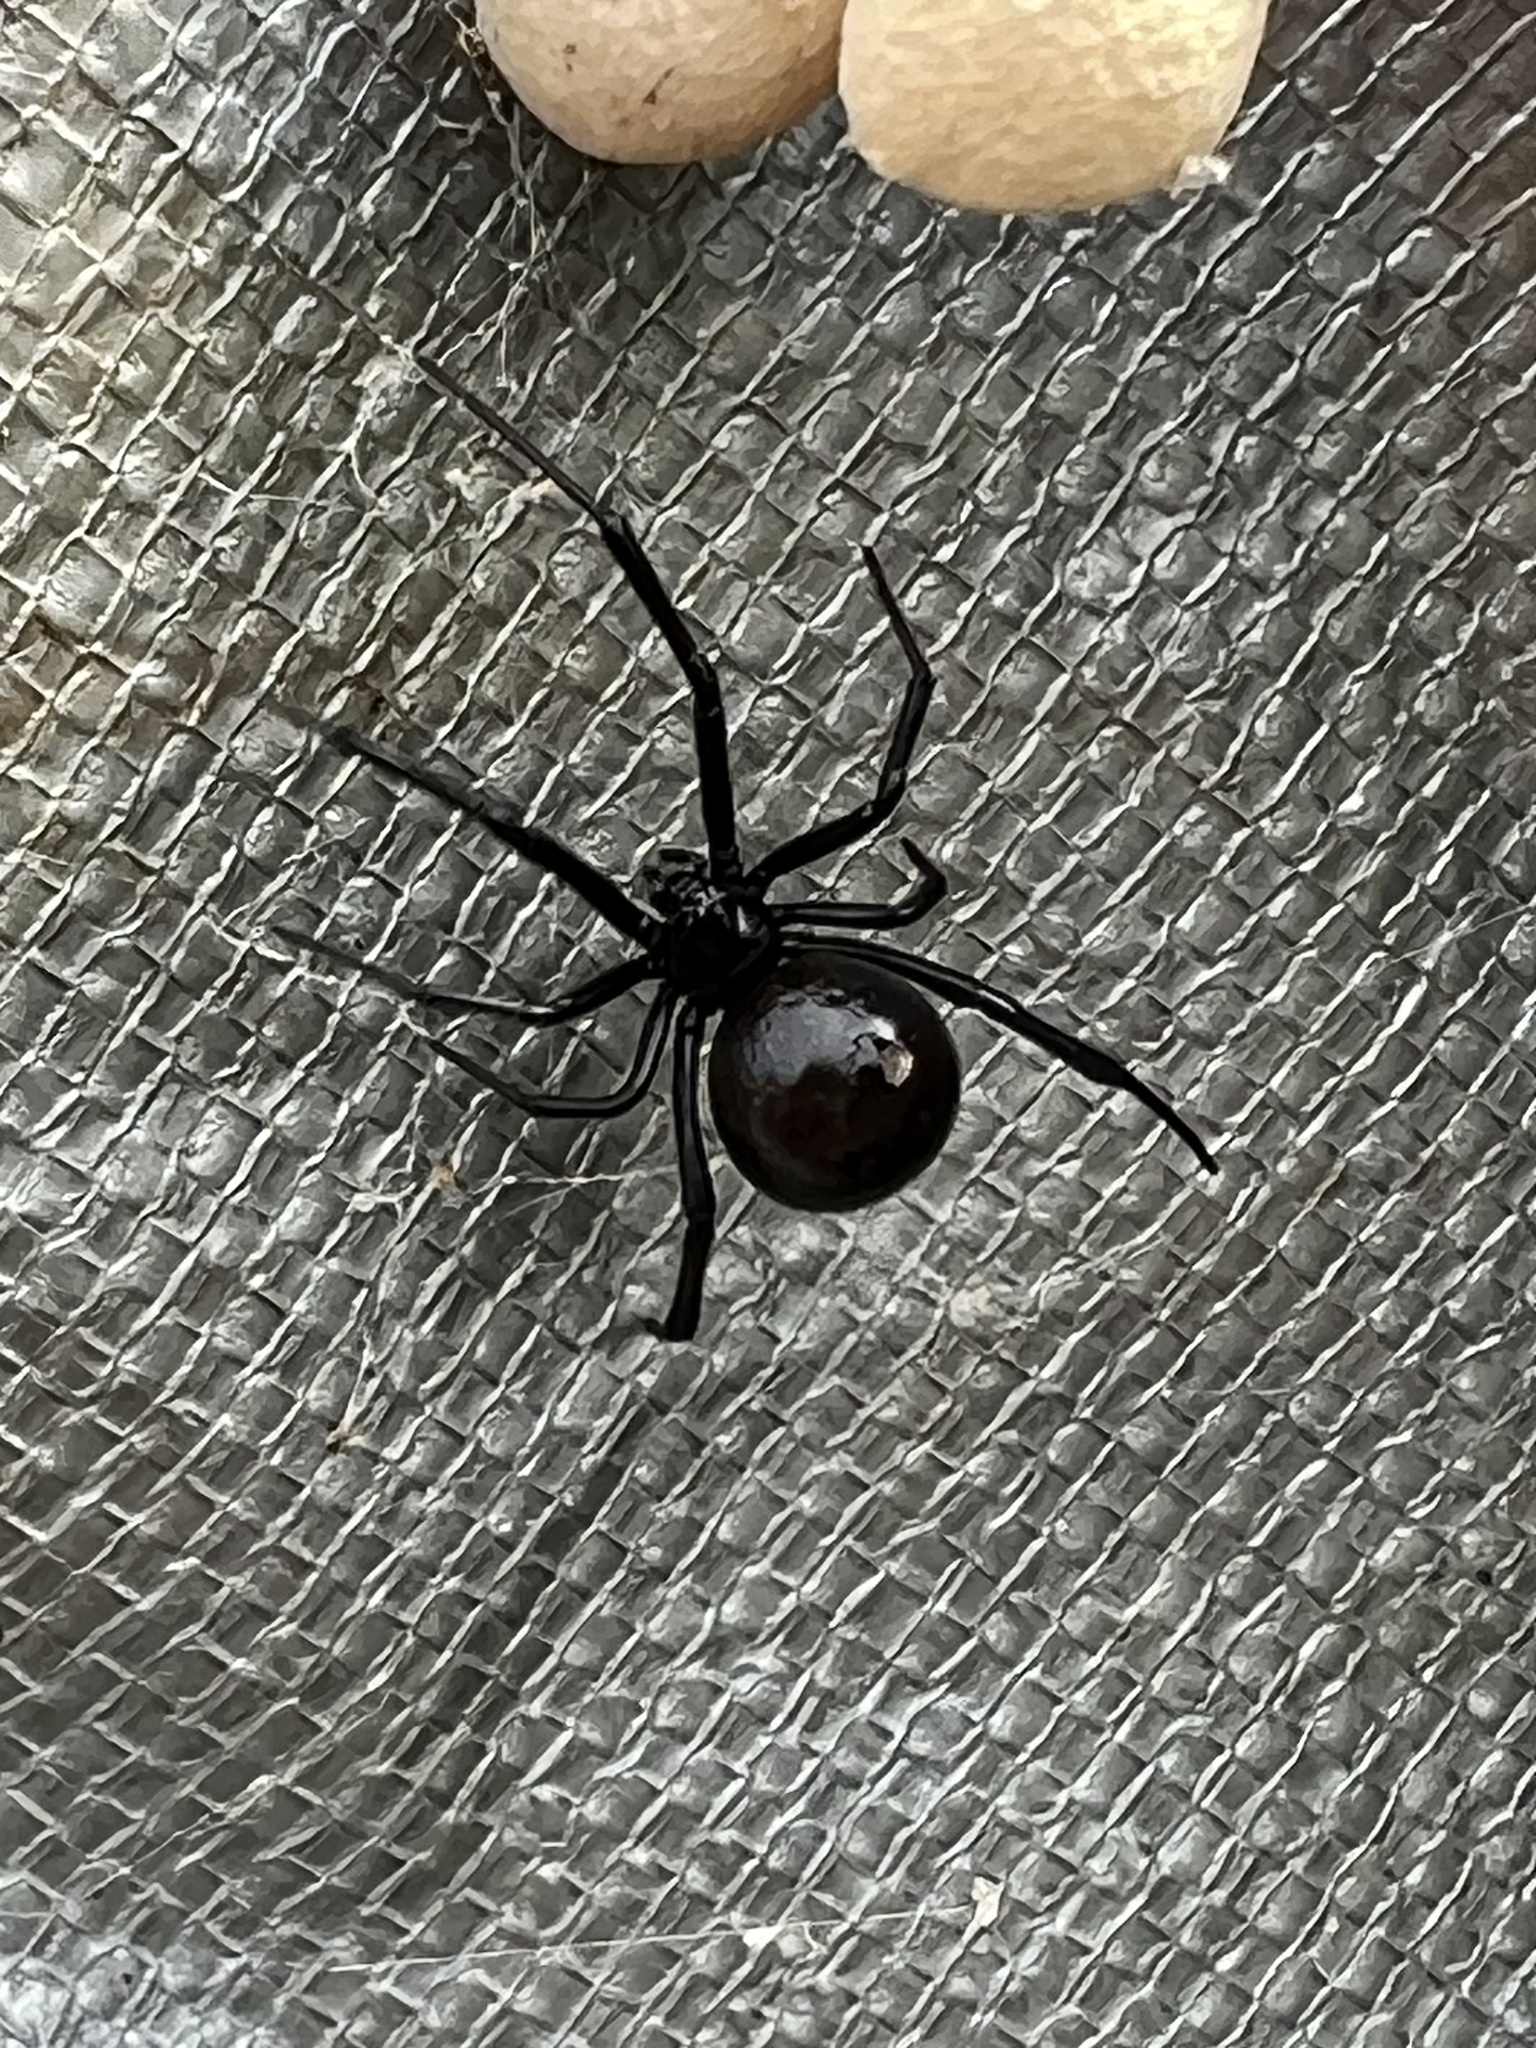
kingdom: Animalia
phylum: Arthropoda
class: Arachnida
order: Araneae
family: Theridiidae
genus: Latrodectus
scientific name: Latrodectus mactans
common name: Cobweb spiders
